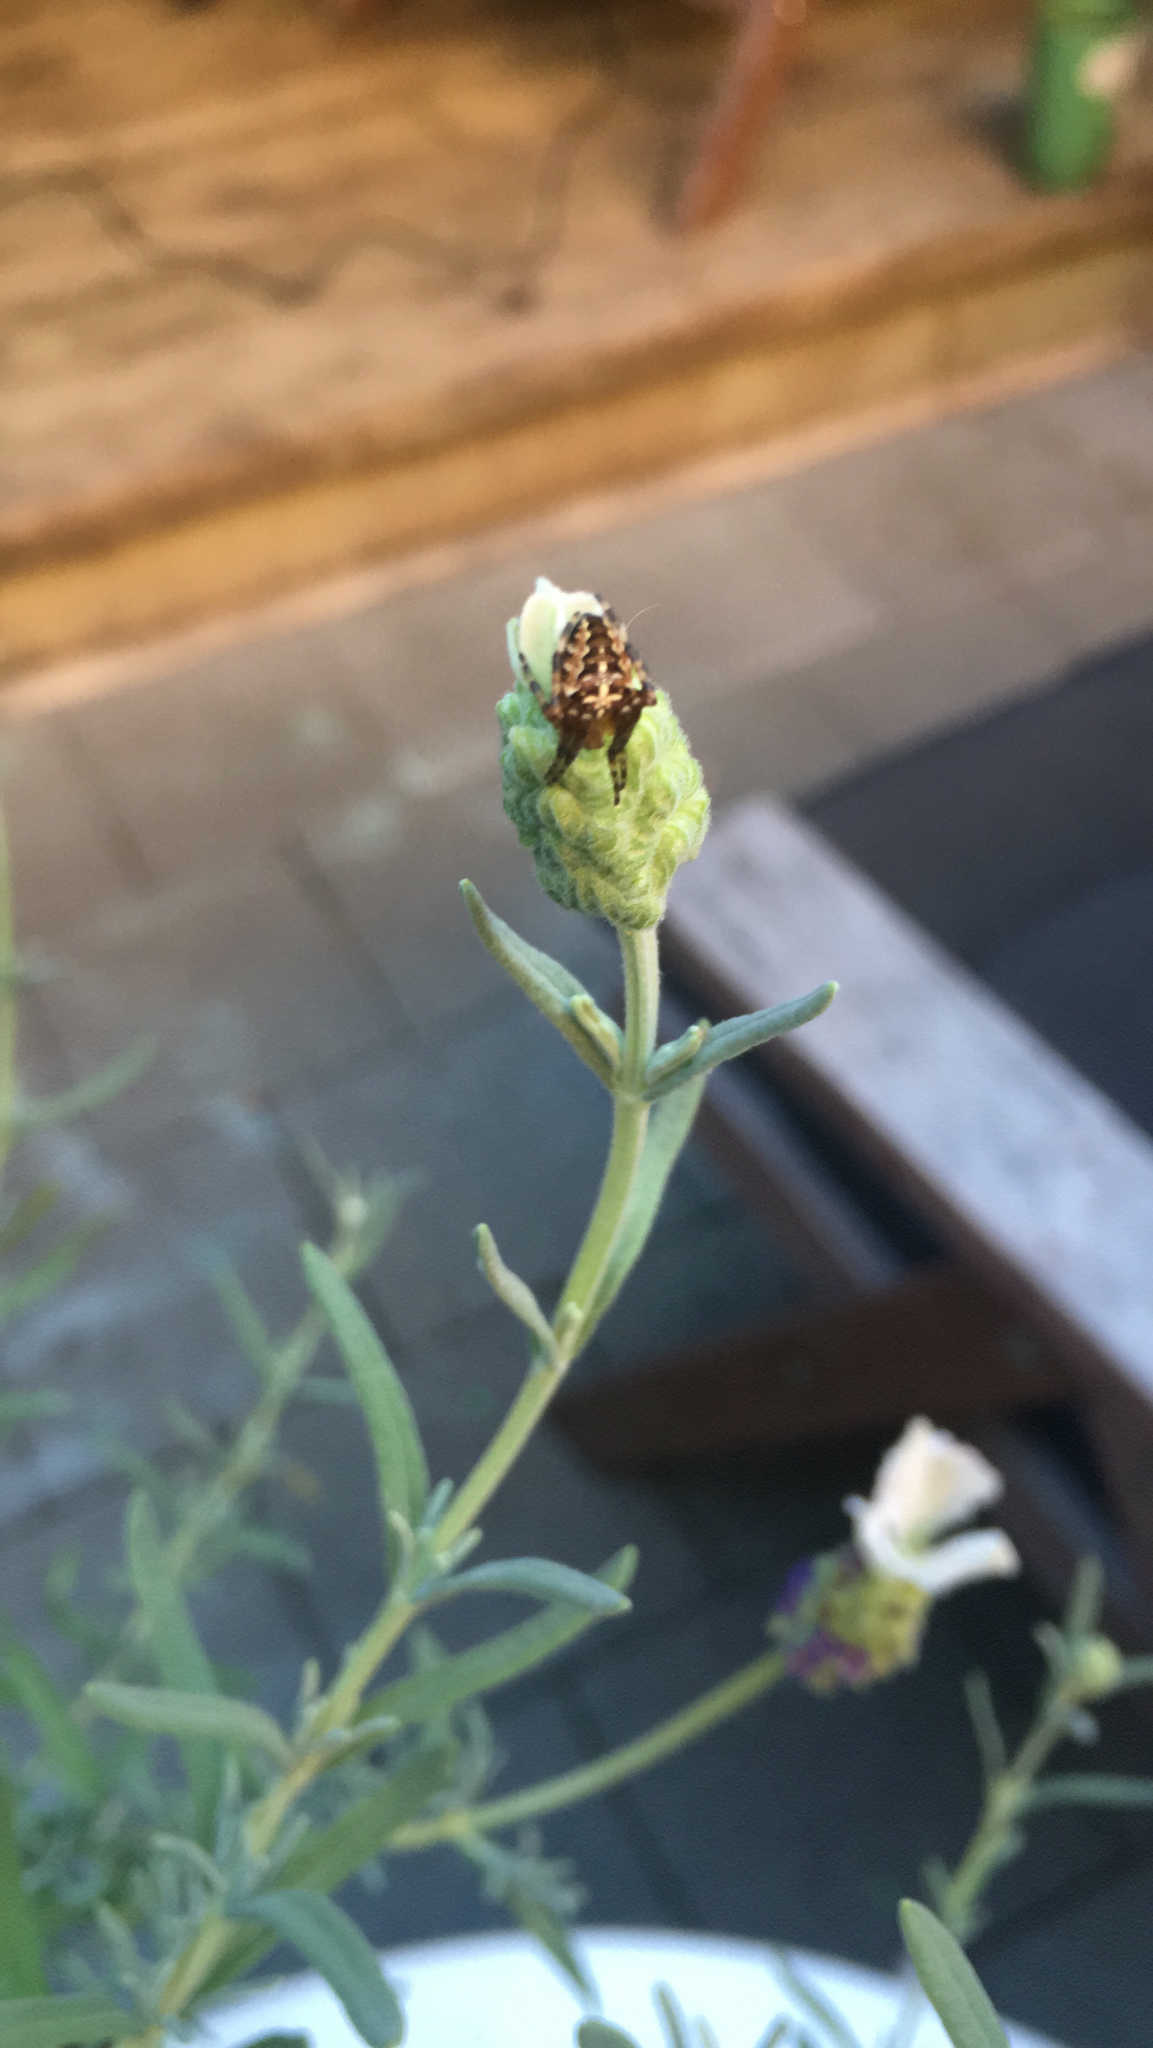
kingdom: Animalia
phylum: Arthropoda
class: Arachnida
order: Araneae
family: Araneidae
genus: Araneus
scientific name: Araneus diadematus
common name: Cross orbweaver
